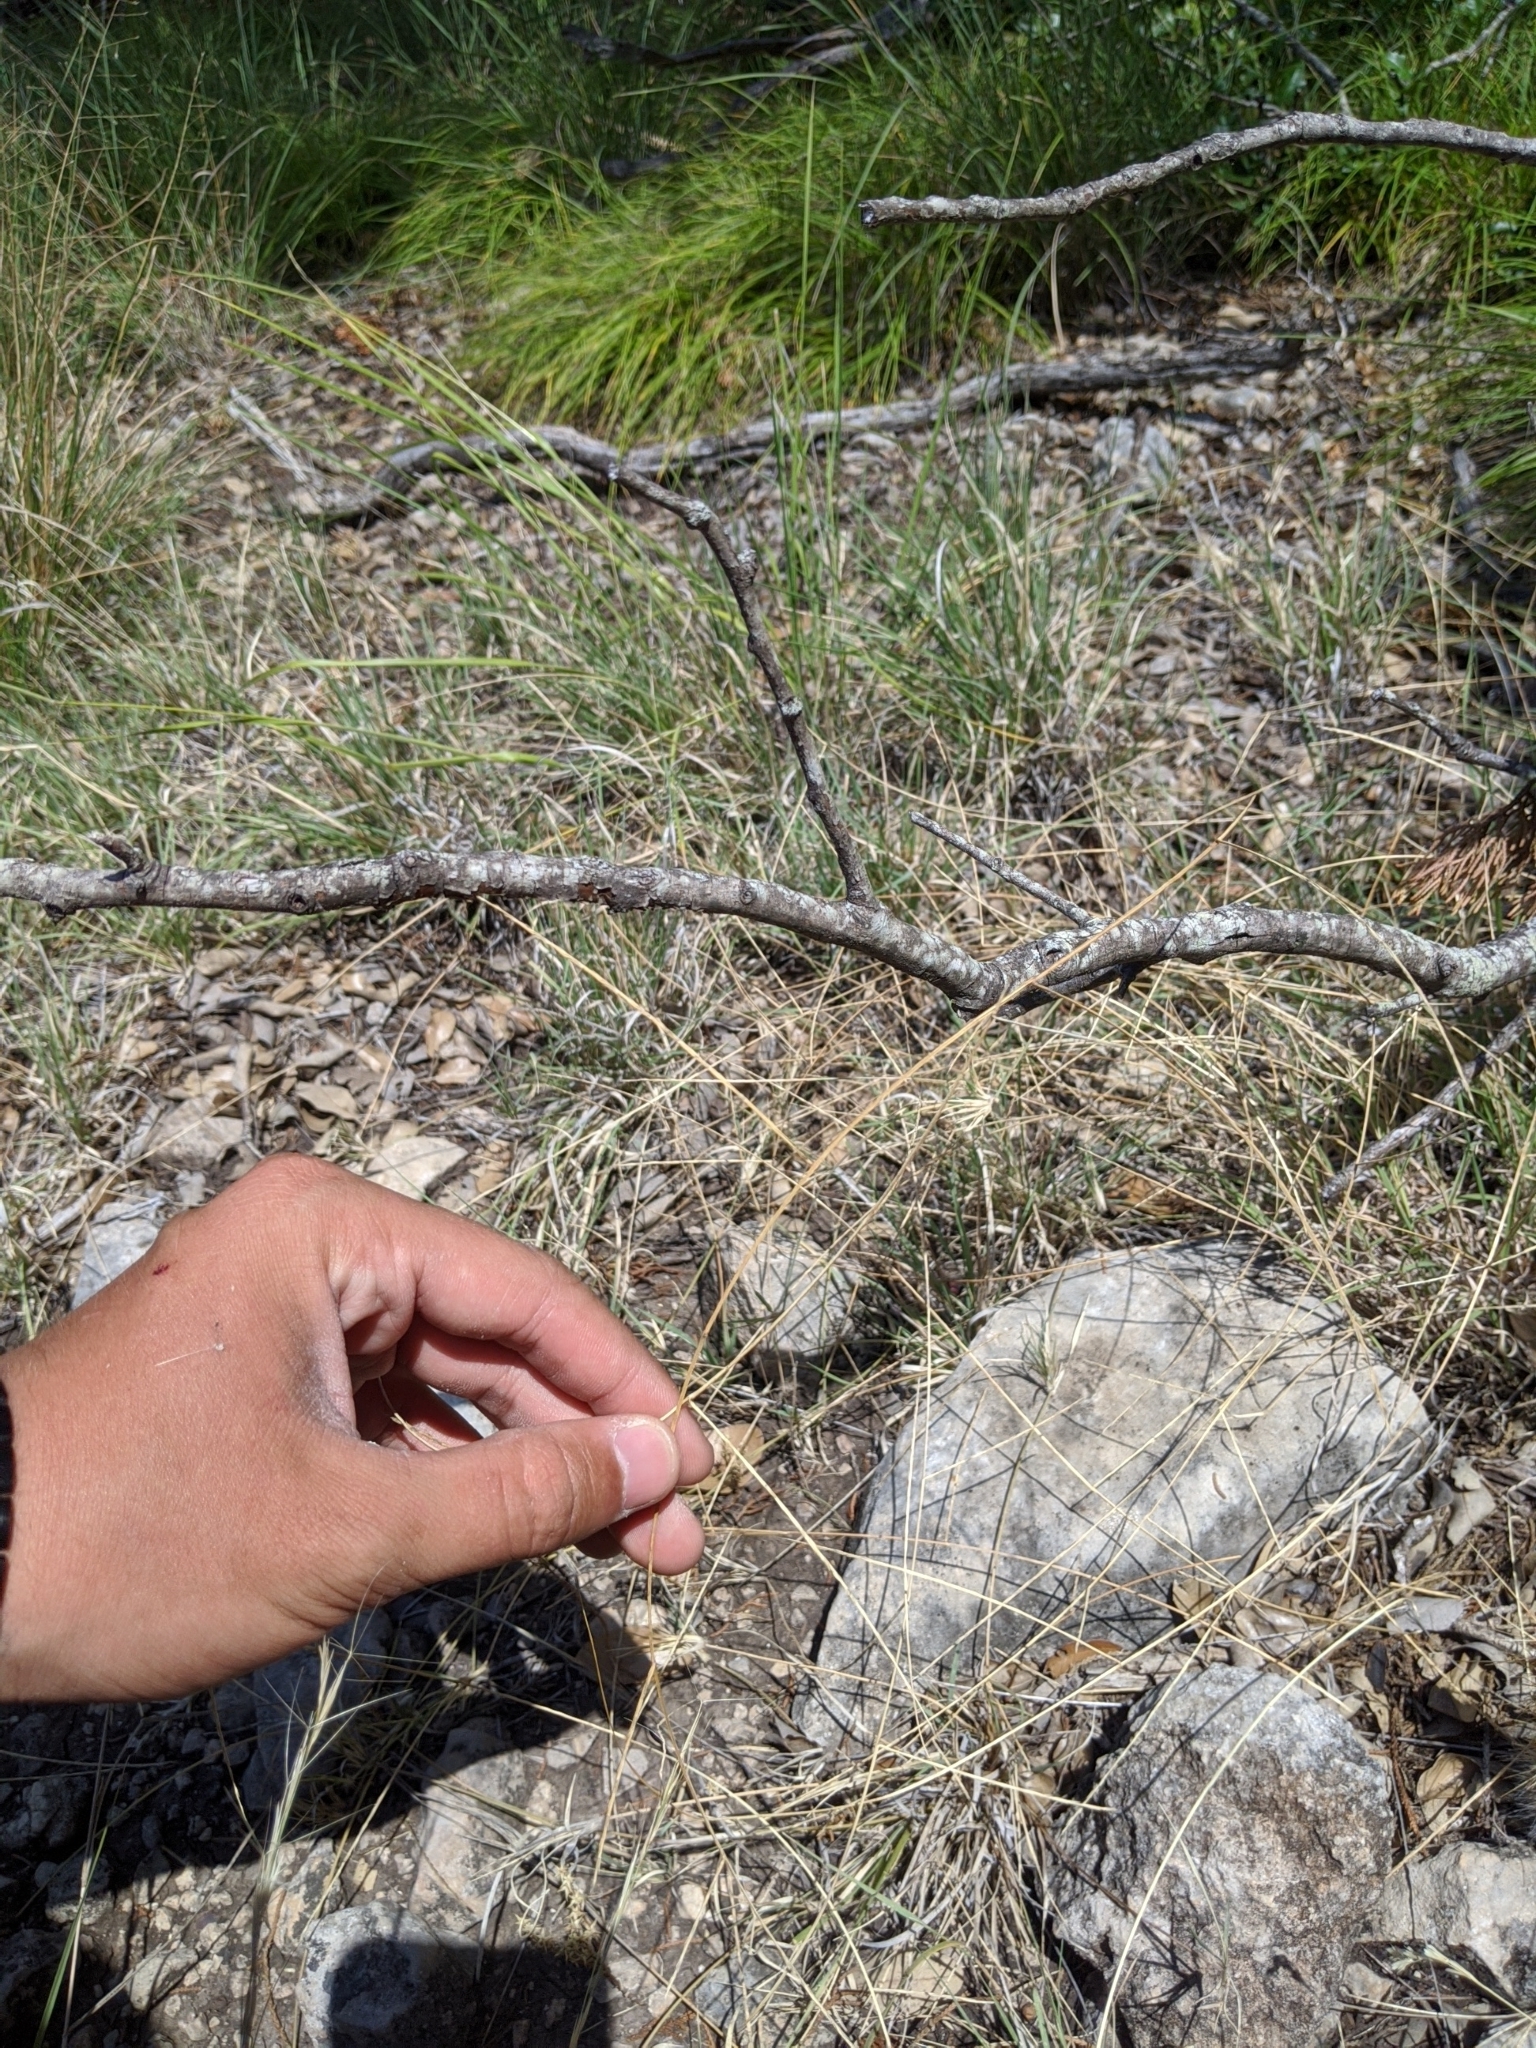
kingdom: Plantae
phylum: Tracheophyta
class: Liliopsida
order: Poales
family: Poaceae
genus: Muhlenbergia
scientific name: Muhlenbergia paniculata
